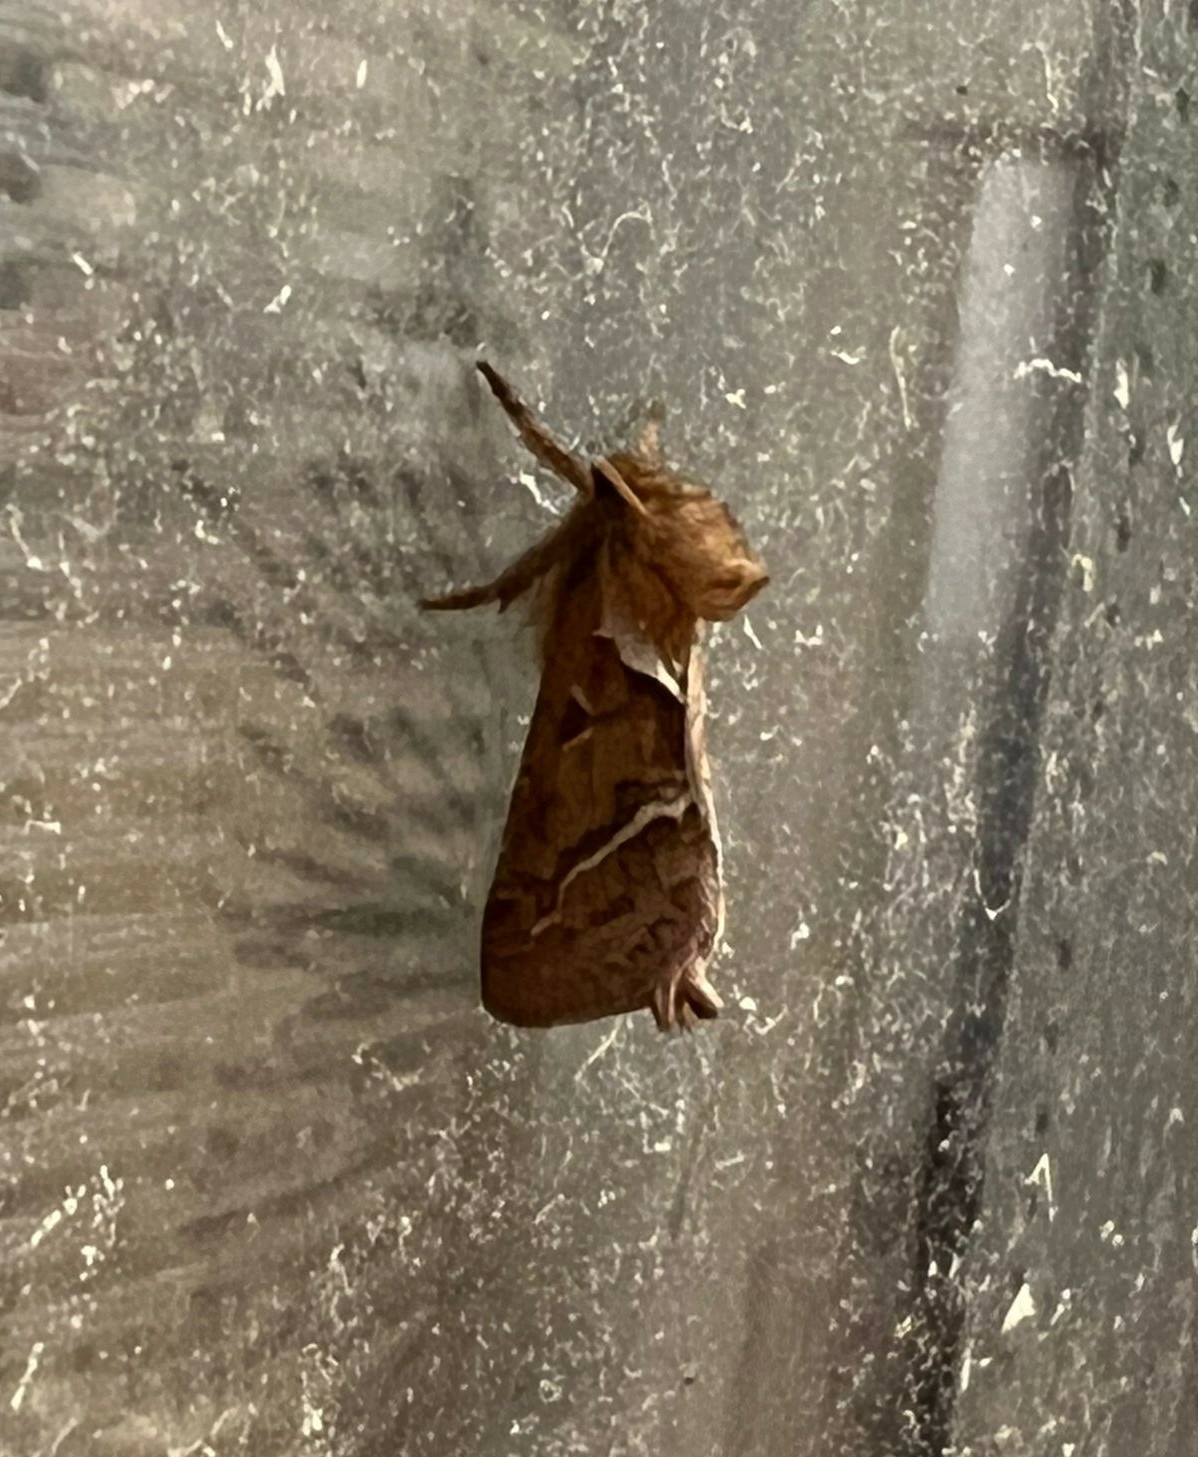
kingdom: Animalia
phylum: Arthropoda
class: Insecta
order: Lepidoptera
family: Hepialidae
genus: Triodia
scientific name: Triodia sylvina
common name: Orange swift
